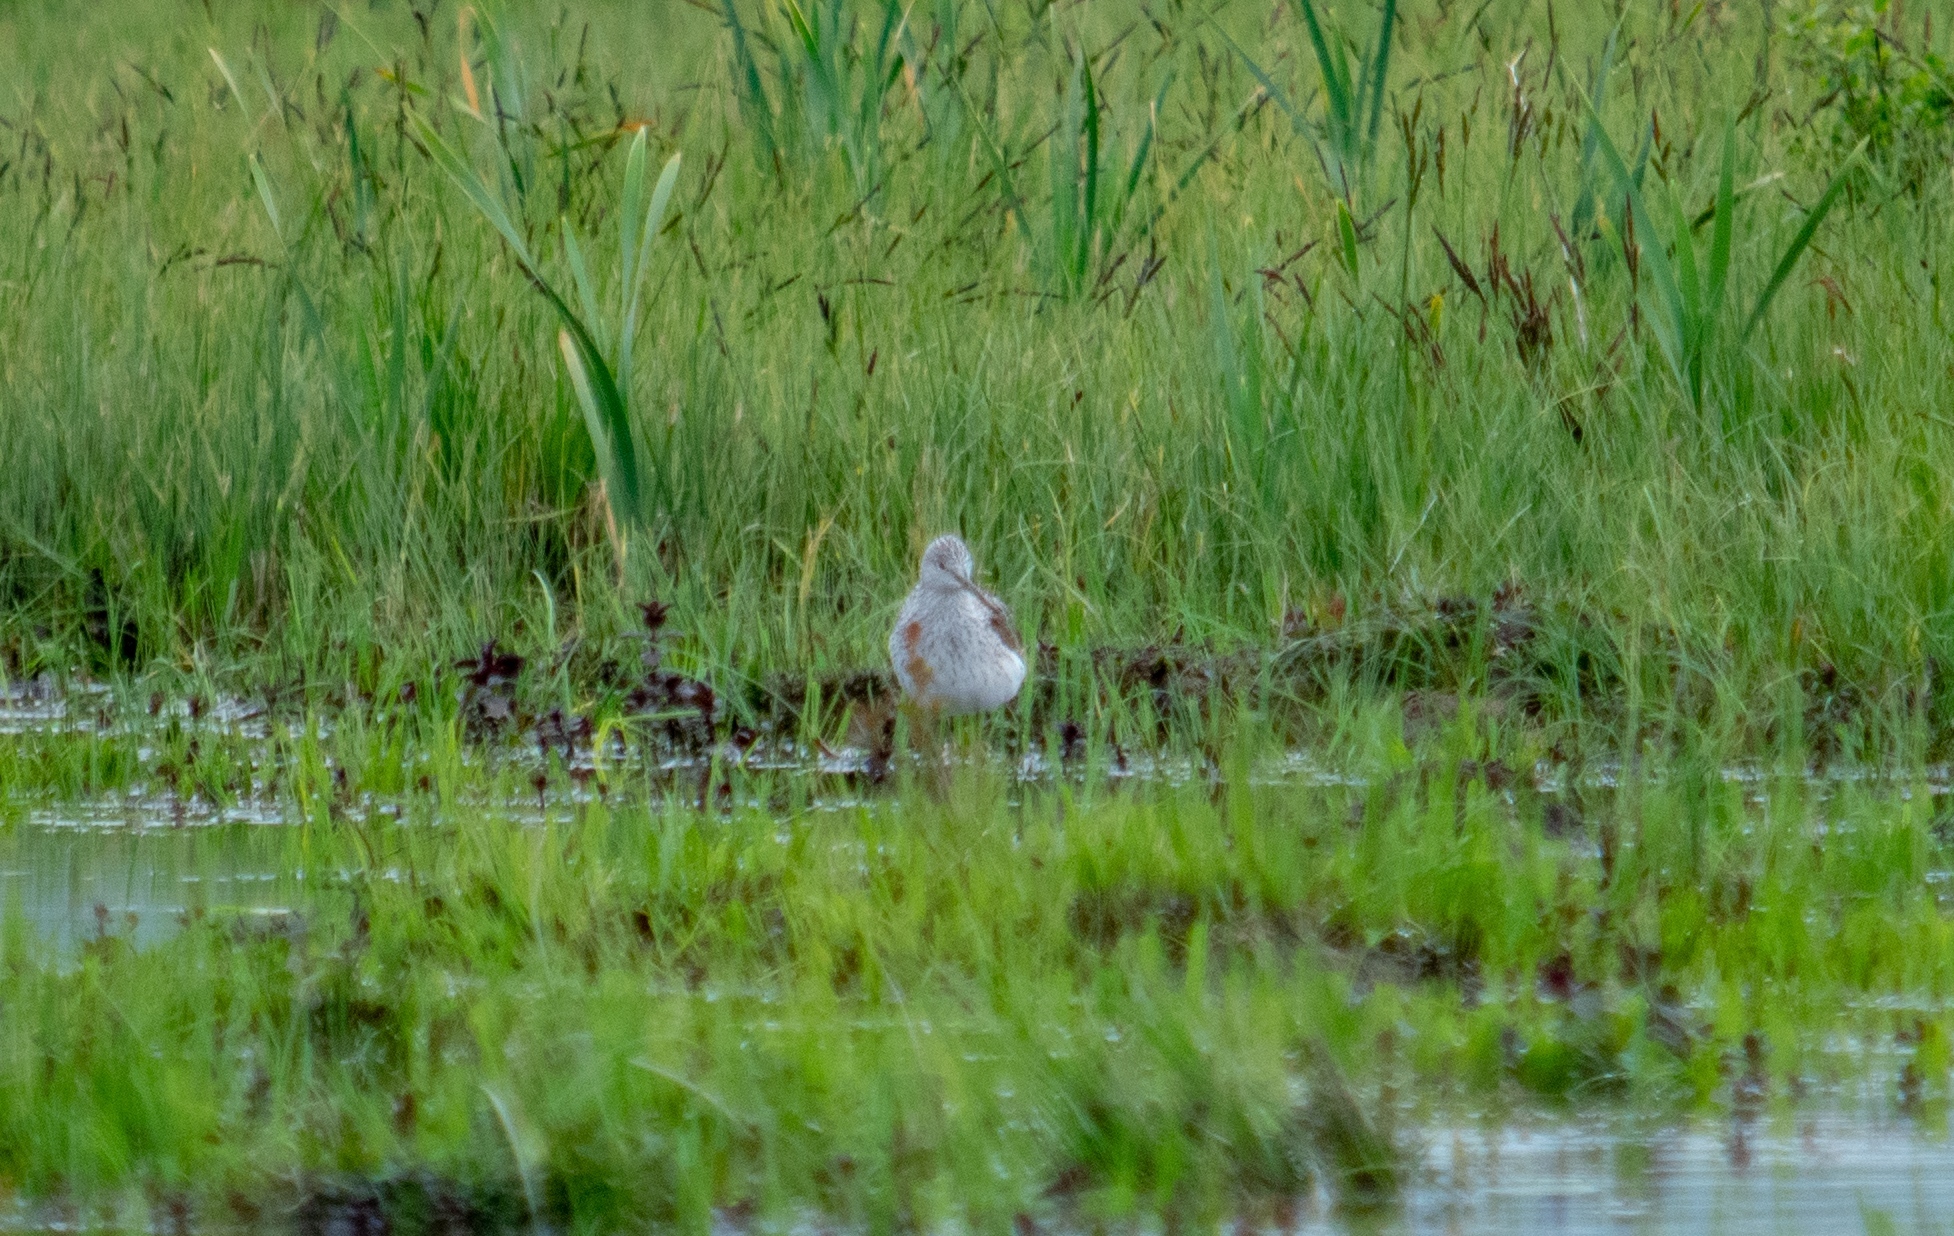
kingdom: Animalia
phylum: Chordata
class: Aves
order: Charadriiformes
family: Scolopacidae
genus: Tringa
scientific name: Tringa nebularia
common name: Common greenshank
